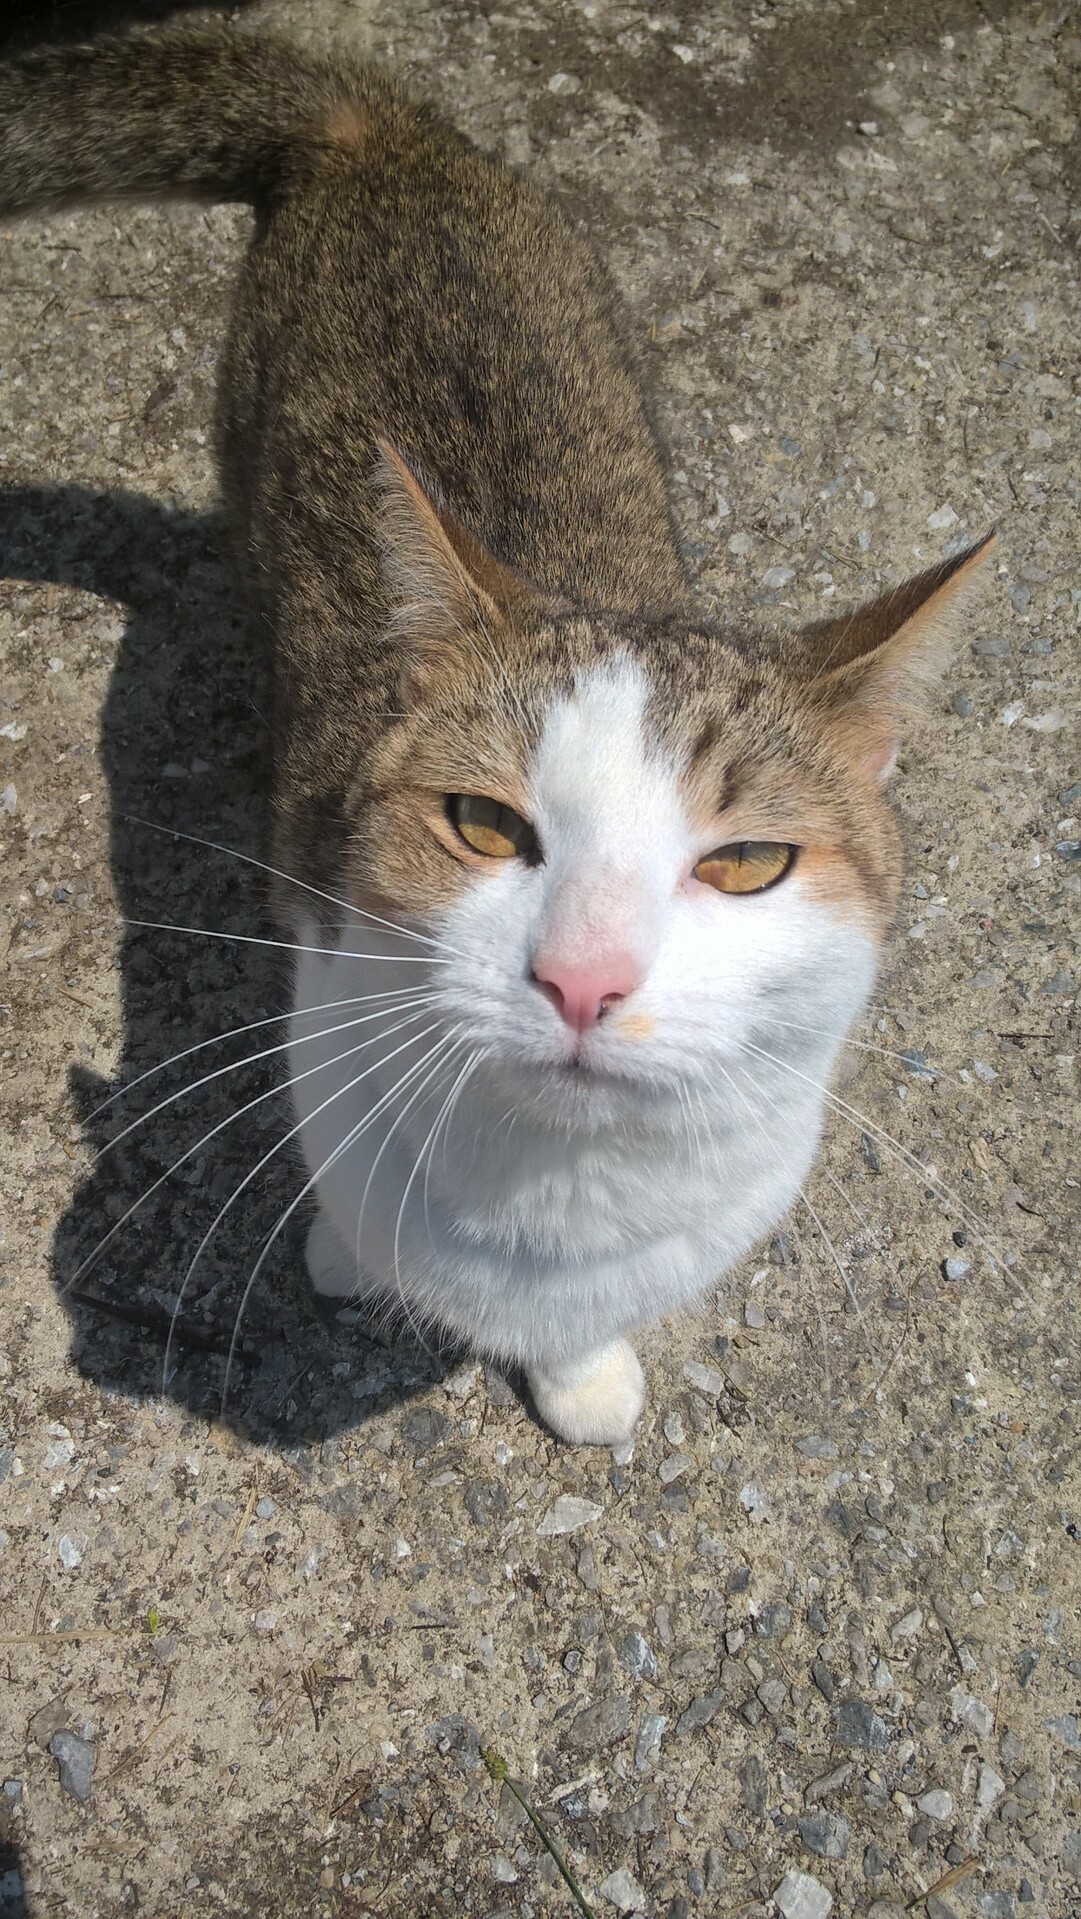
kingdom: Animalia
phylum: Chordata
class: Mammalia
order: Carnivora
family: Felidae
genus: Felis
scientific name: Felis catus
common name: Domestic cat
